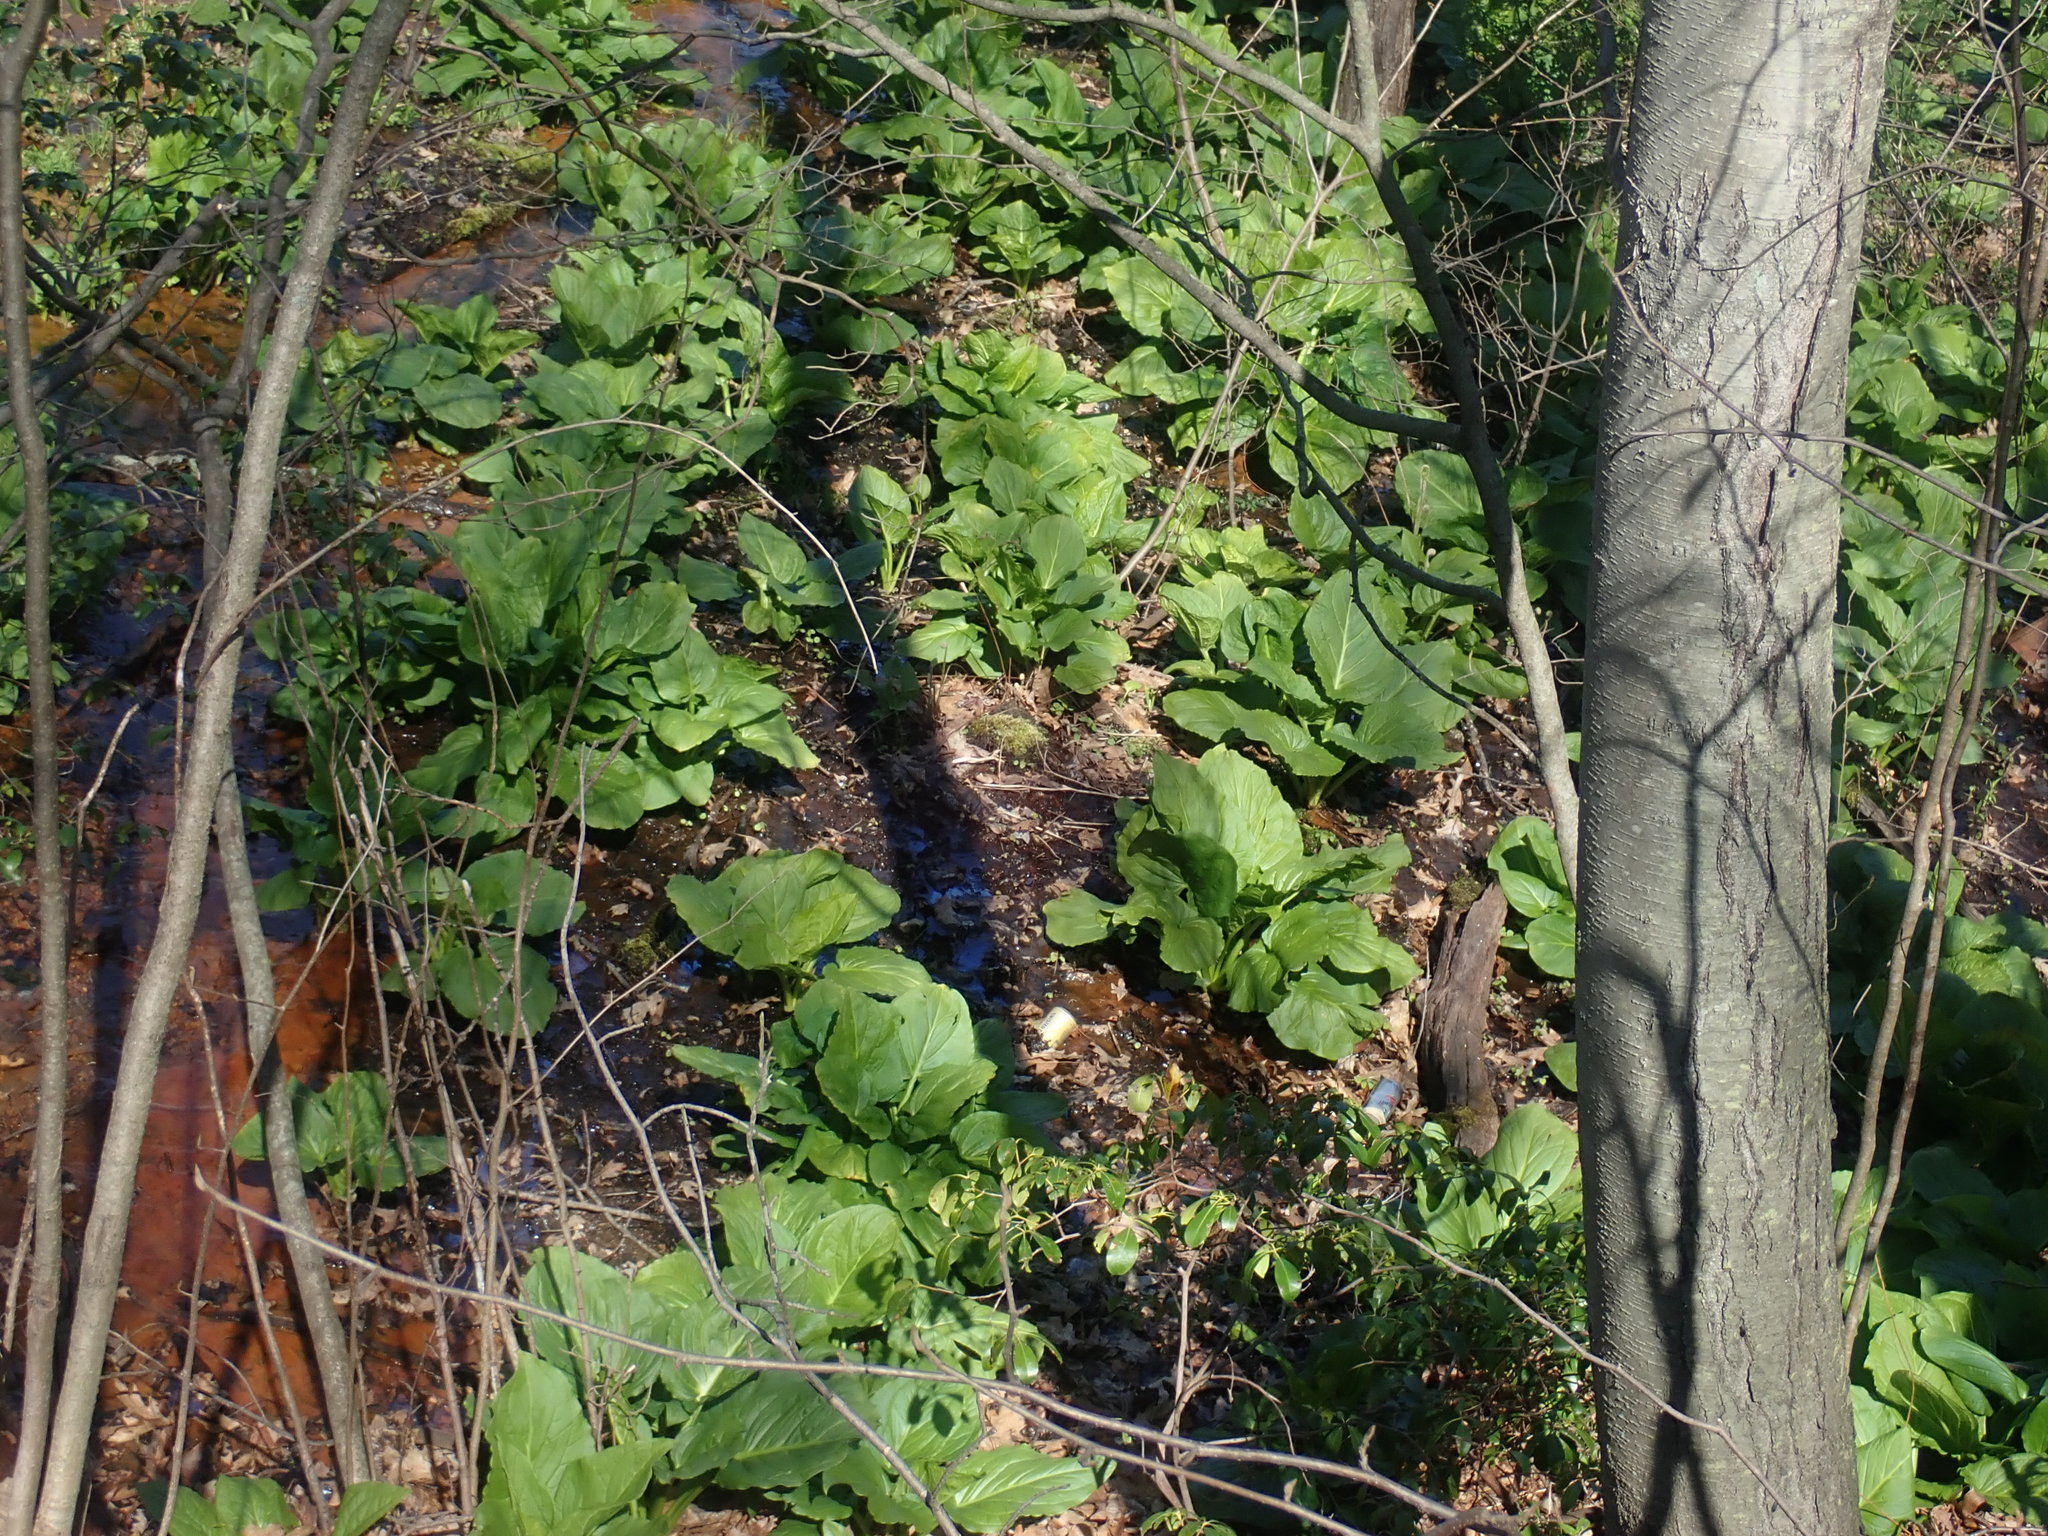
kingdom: Plantae
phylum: Tracheophyta
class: Liliopsida
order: Alismatales
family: Araceae
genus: Symplocarpus
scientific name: Symplocarpus foetidus
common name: Eastern skunk cabbage
